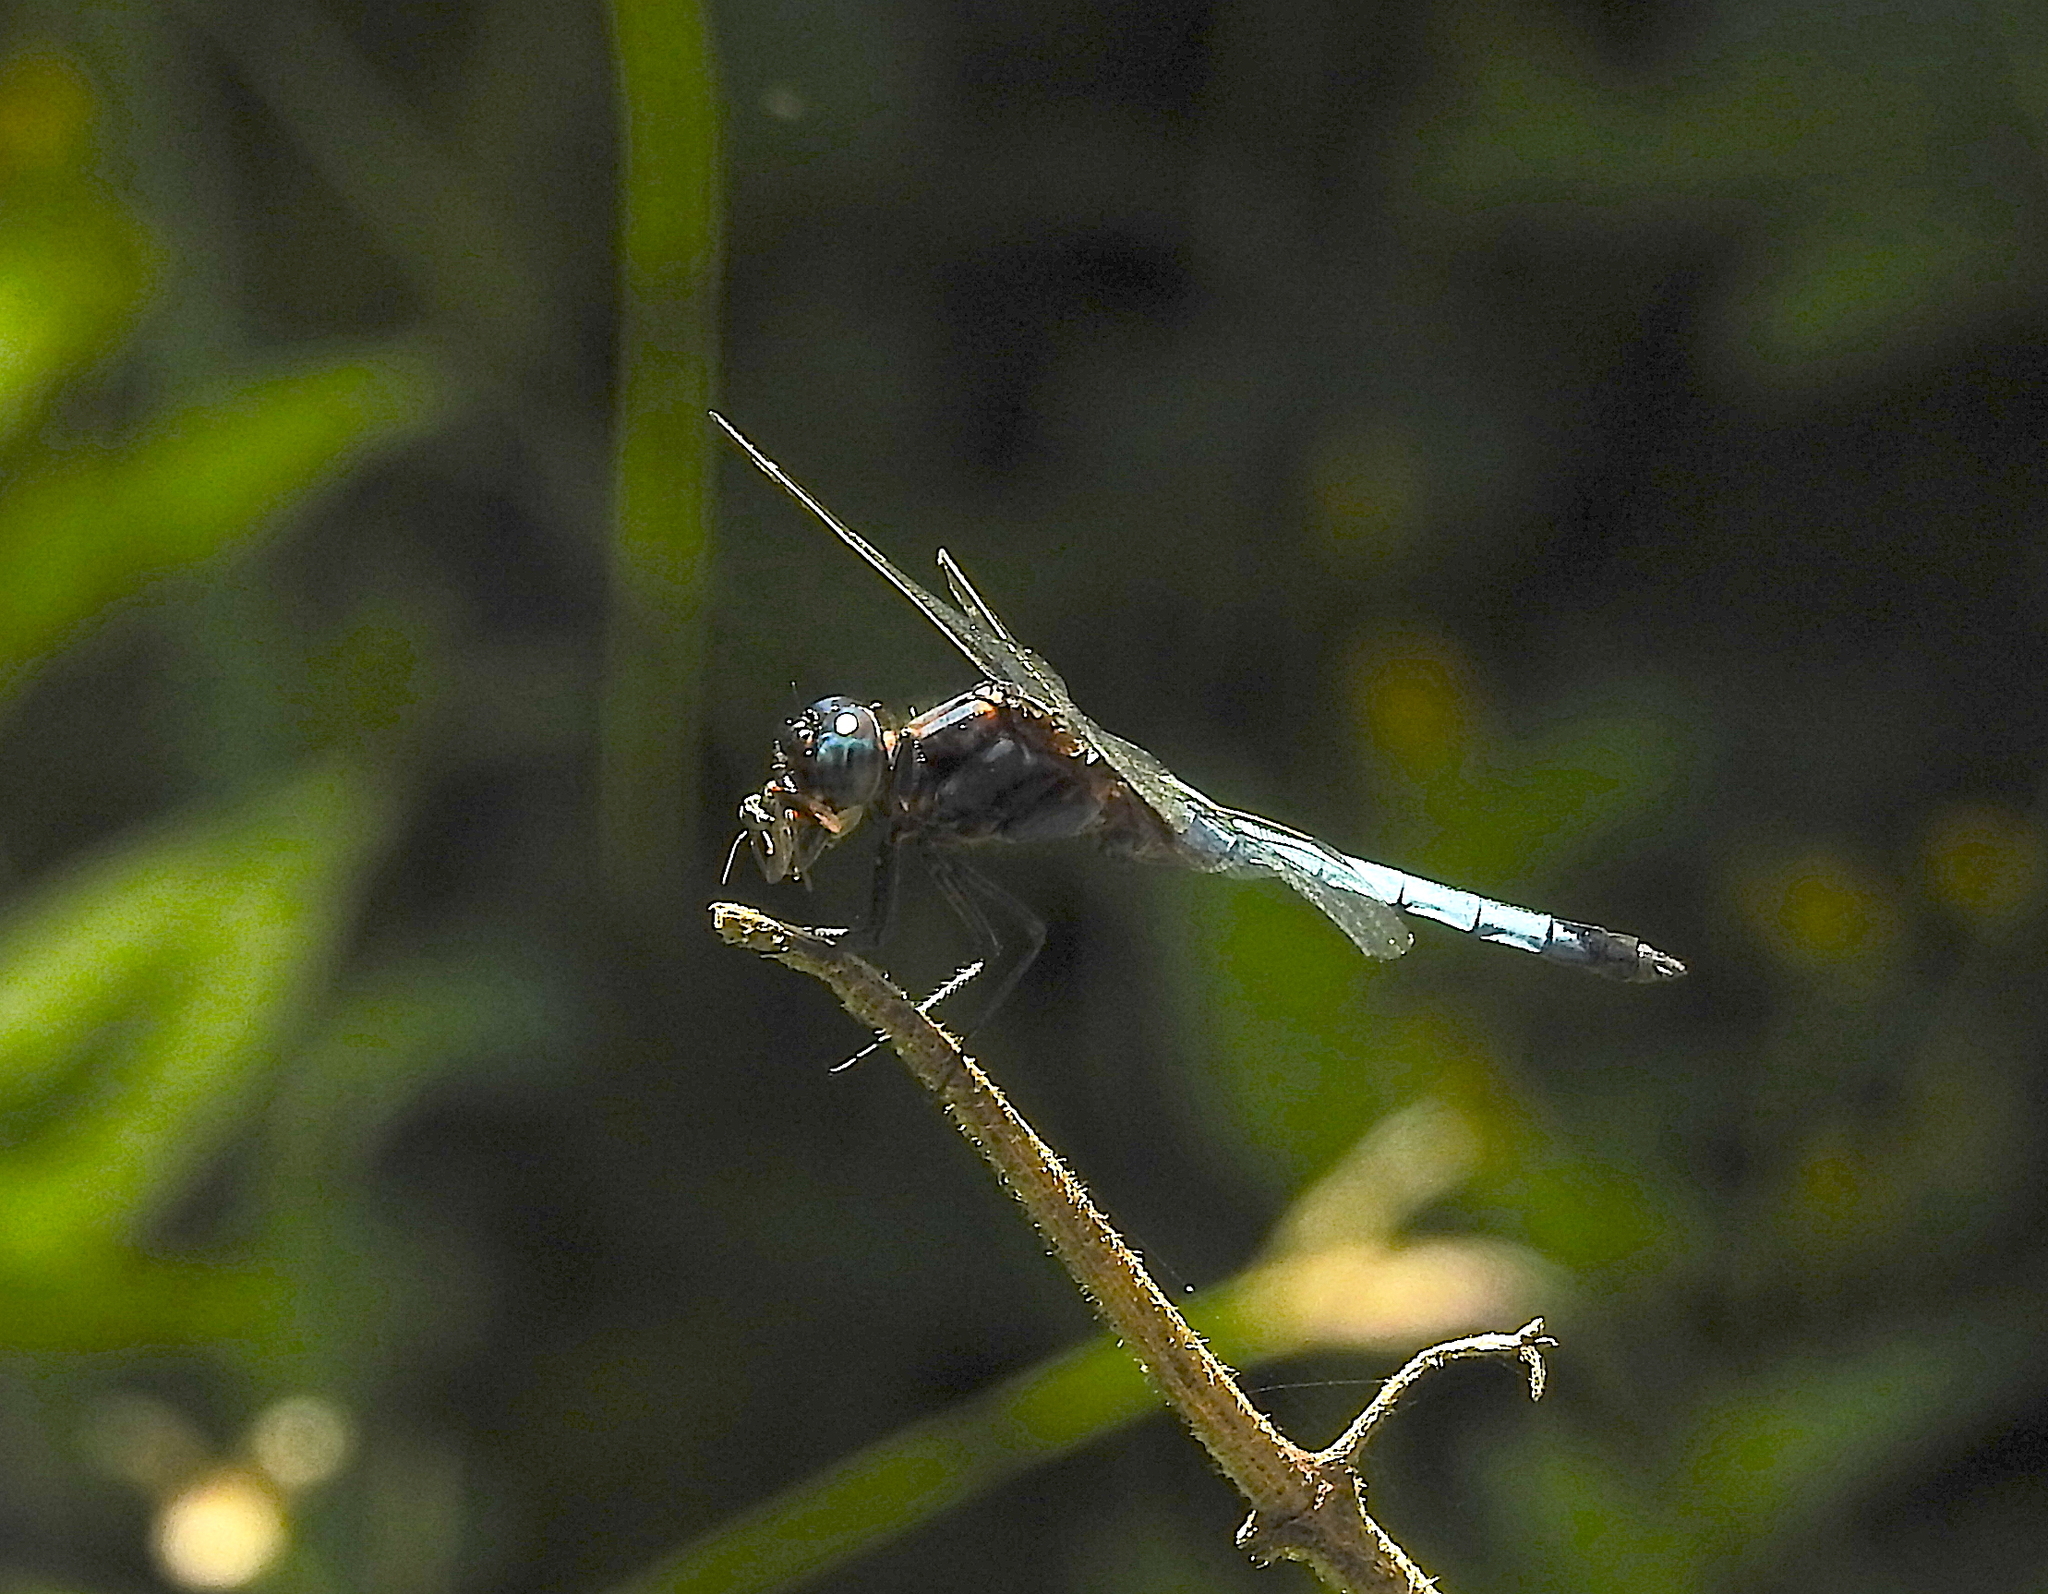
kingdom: Animalia
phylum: Arthropoda
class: Insecta
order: Odonata
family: Libellulidae
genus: Orthetrum
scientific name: Orthetrum glaucum
